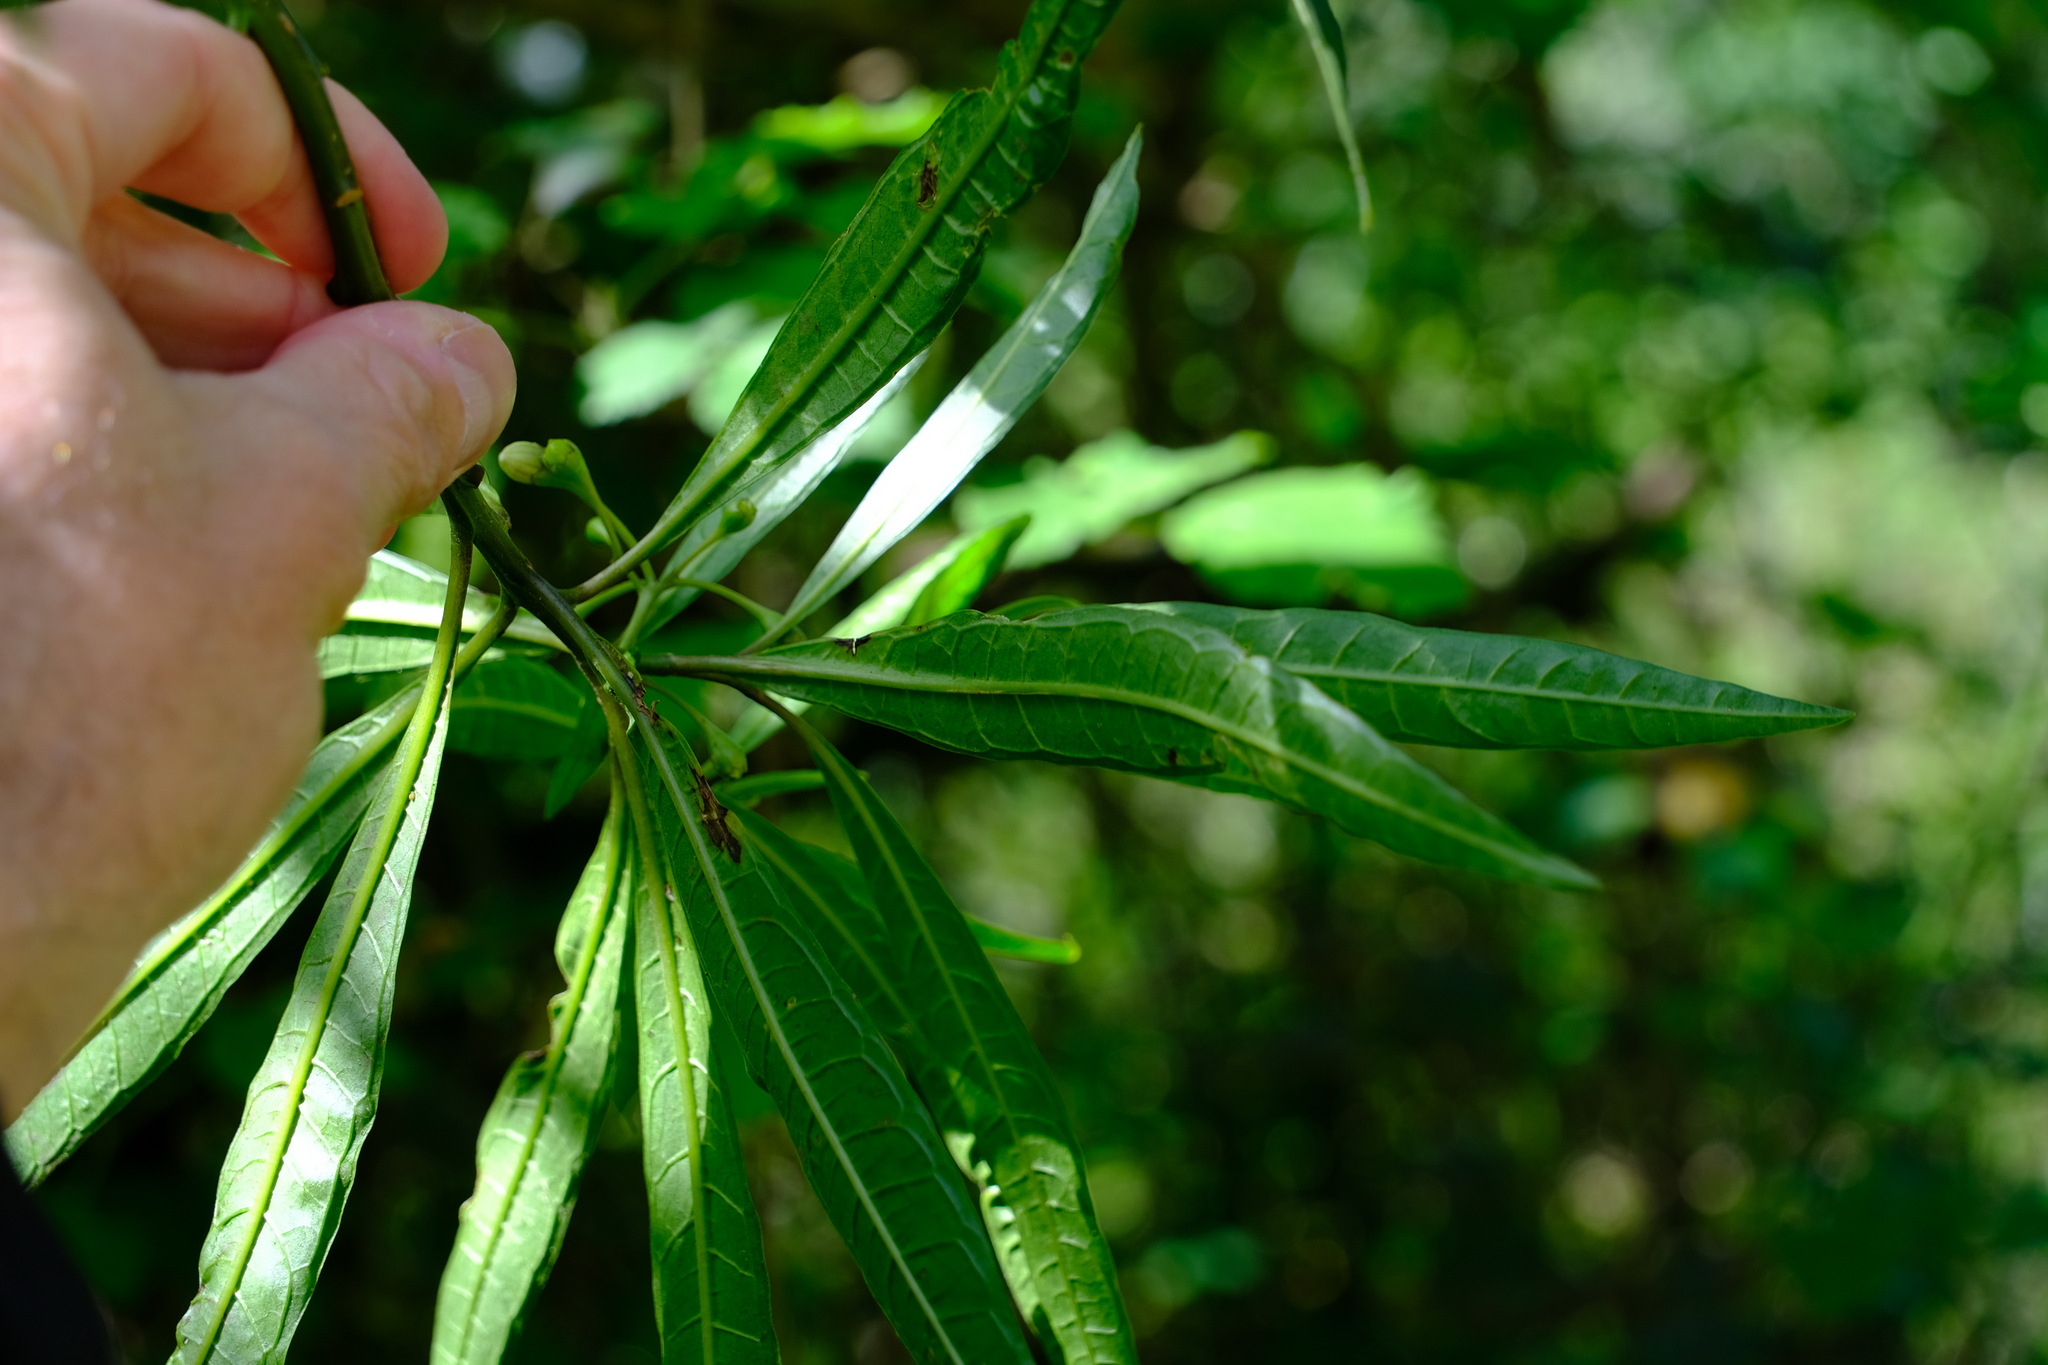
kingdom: Plantae
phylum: Tracheophyta
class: Magnoliopsida
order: Solanales
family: Solanaceae
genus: Solanum
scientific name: Solanum aviculare
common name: New zealand nightshade
